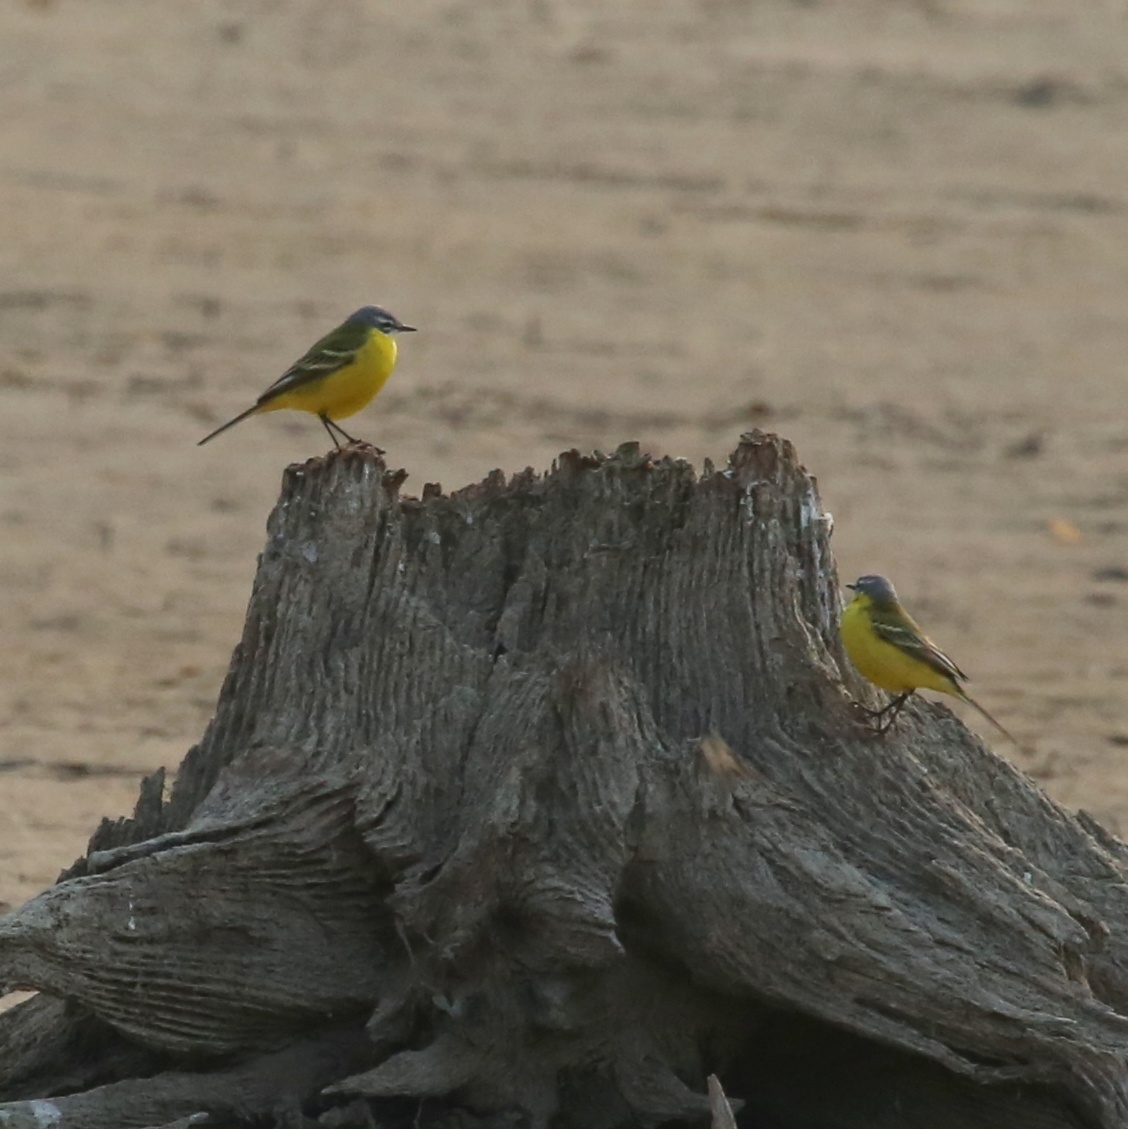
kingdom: Animalia
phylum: Chordata
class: Aves
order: Passeriformes
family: Motacillidae
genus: Motacilla
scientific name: Motacilla flava
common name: Western yellow wagtail
